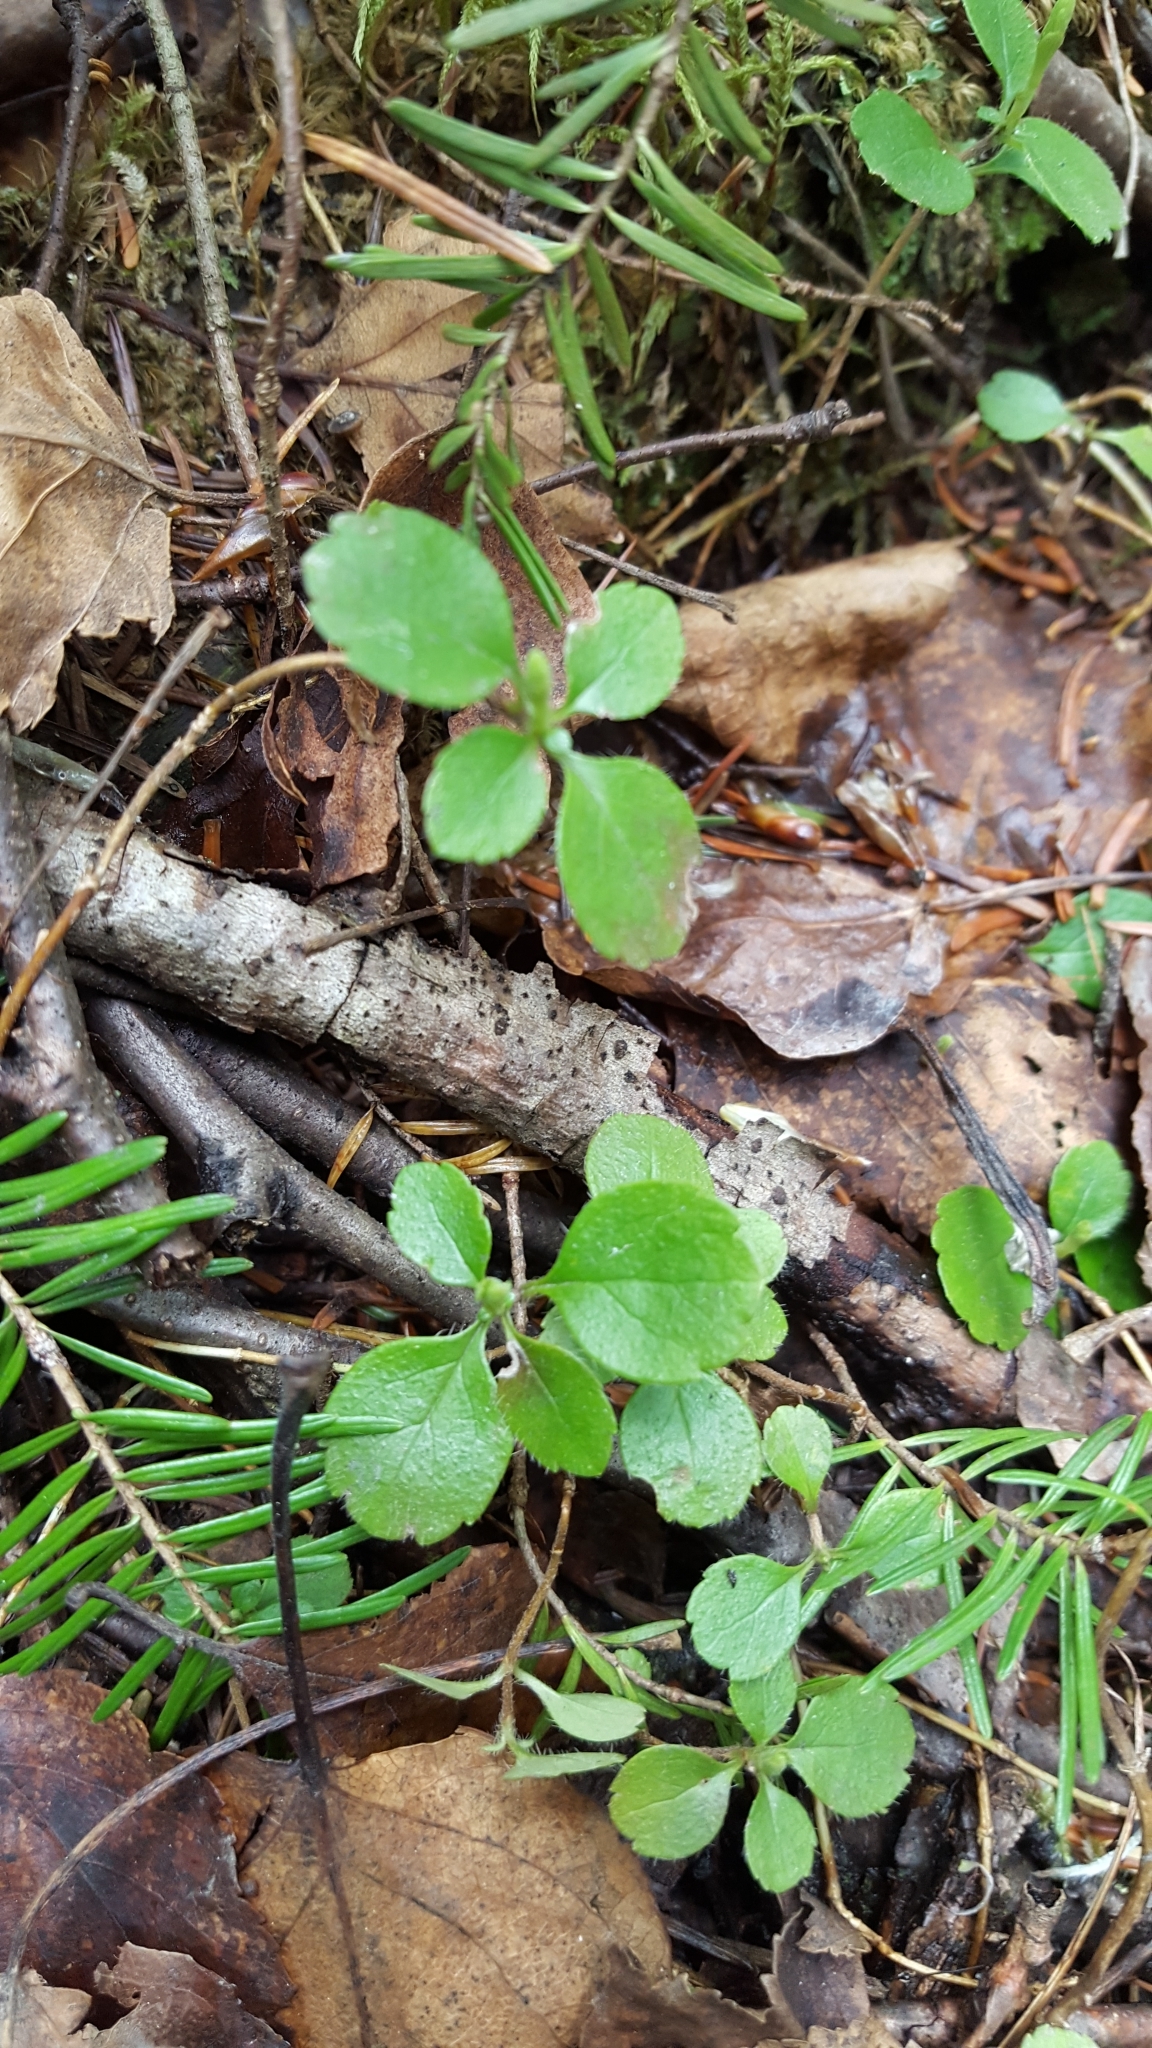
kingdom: Plantae
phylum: Tracheophyta
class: Magnoliopsida
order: Dipsacales
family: Caprifoliaceae
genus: Linnaea
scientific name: Linnaea borealis
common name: Twinflower
